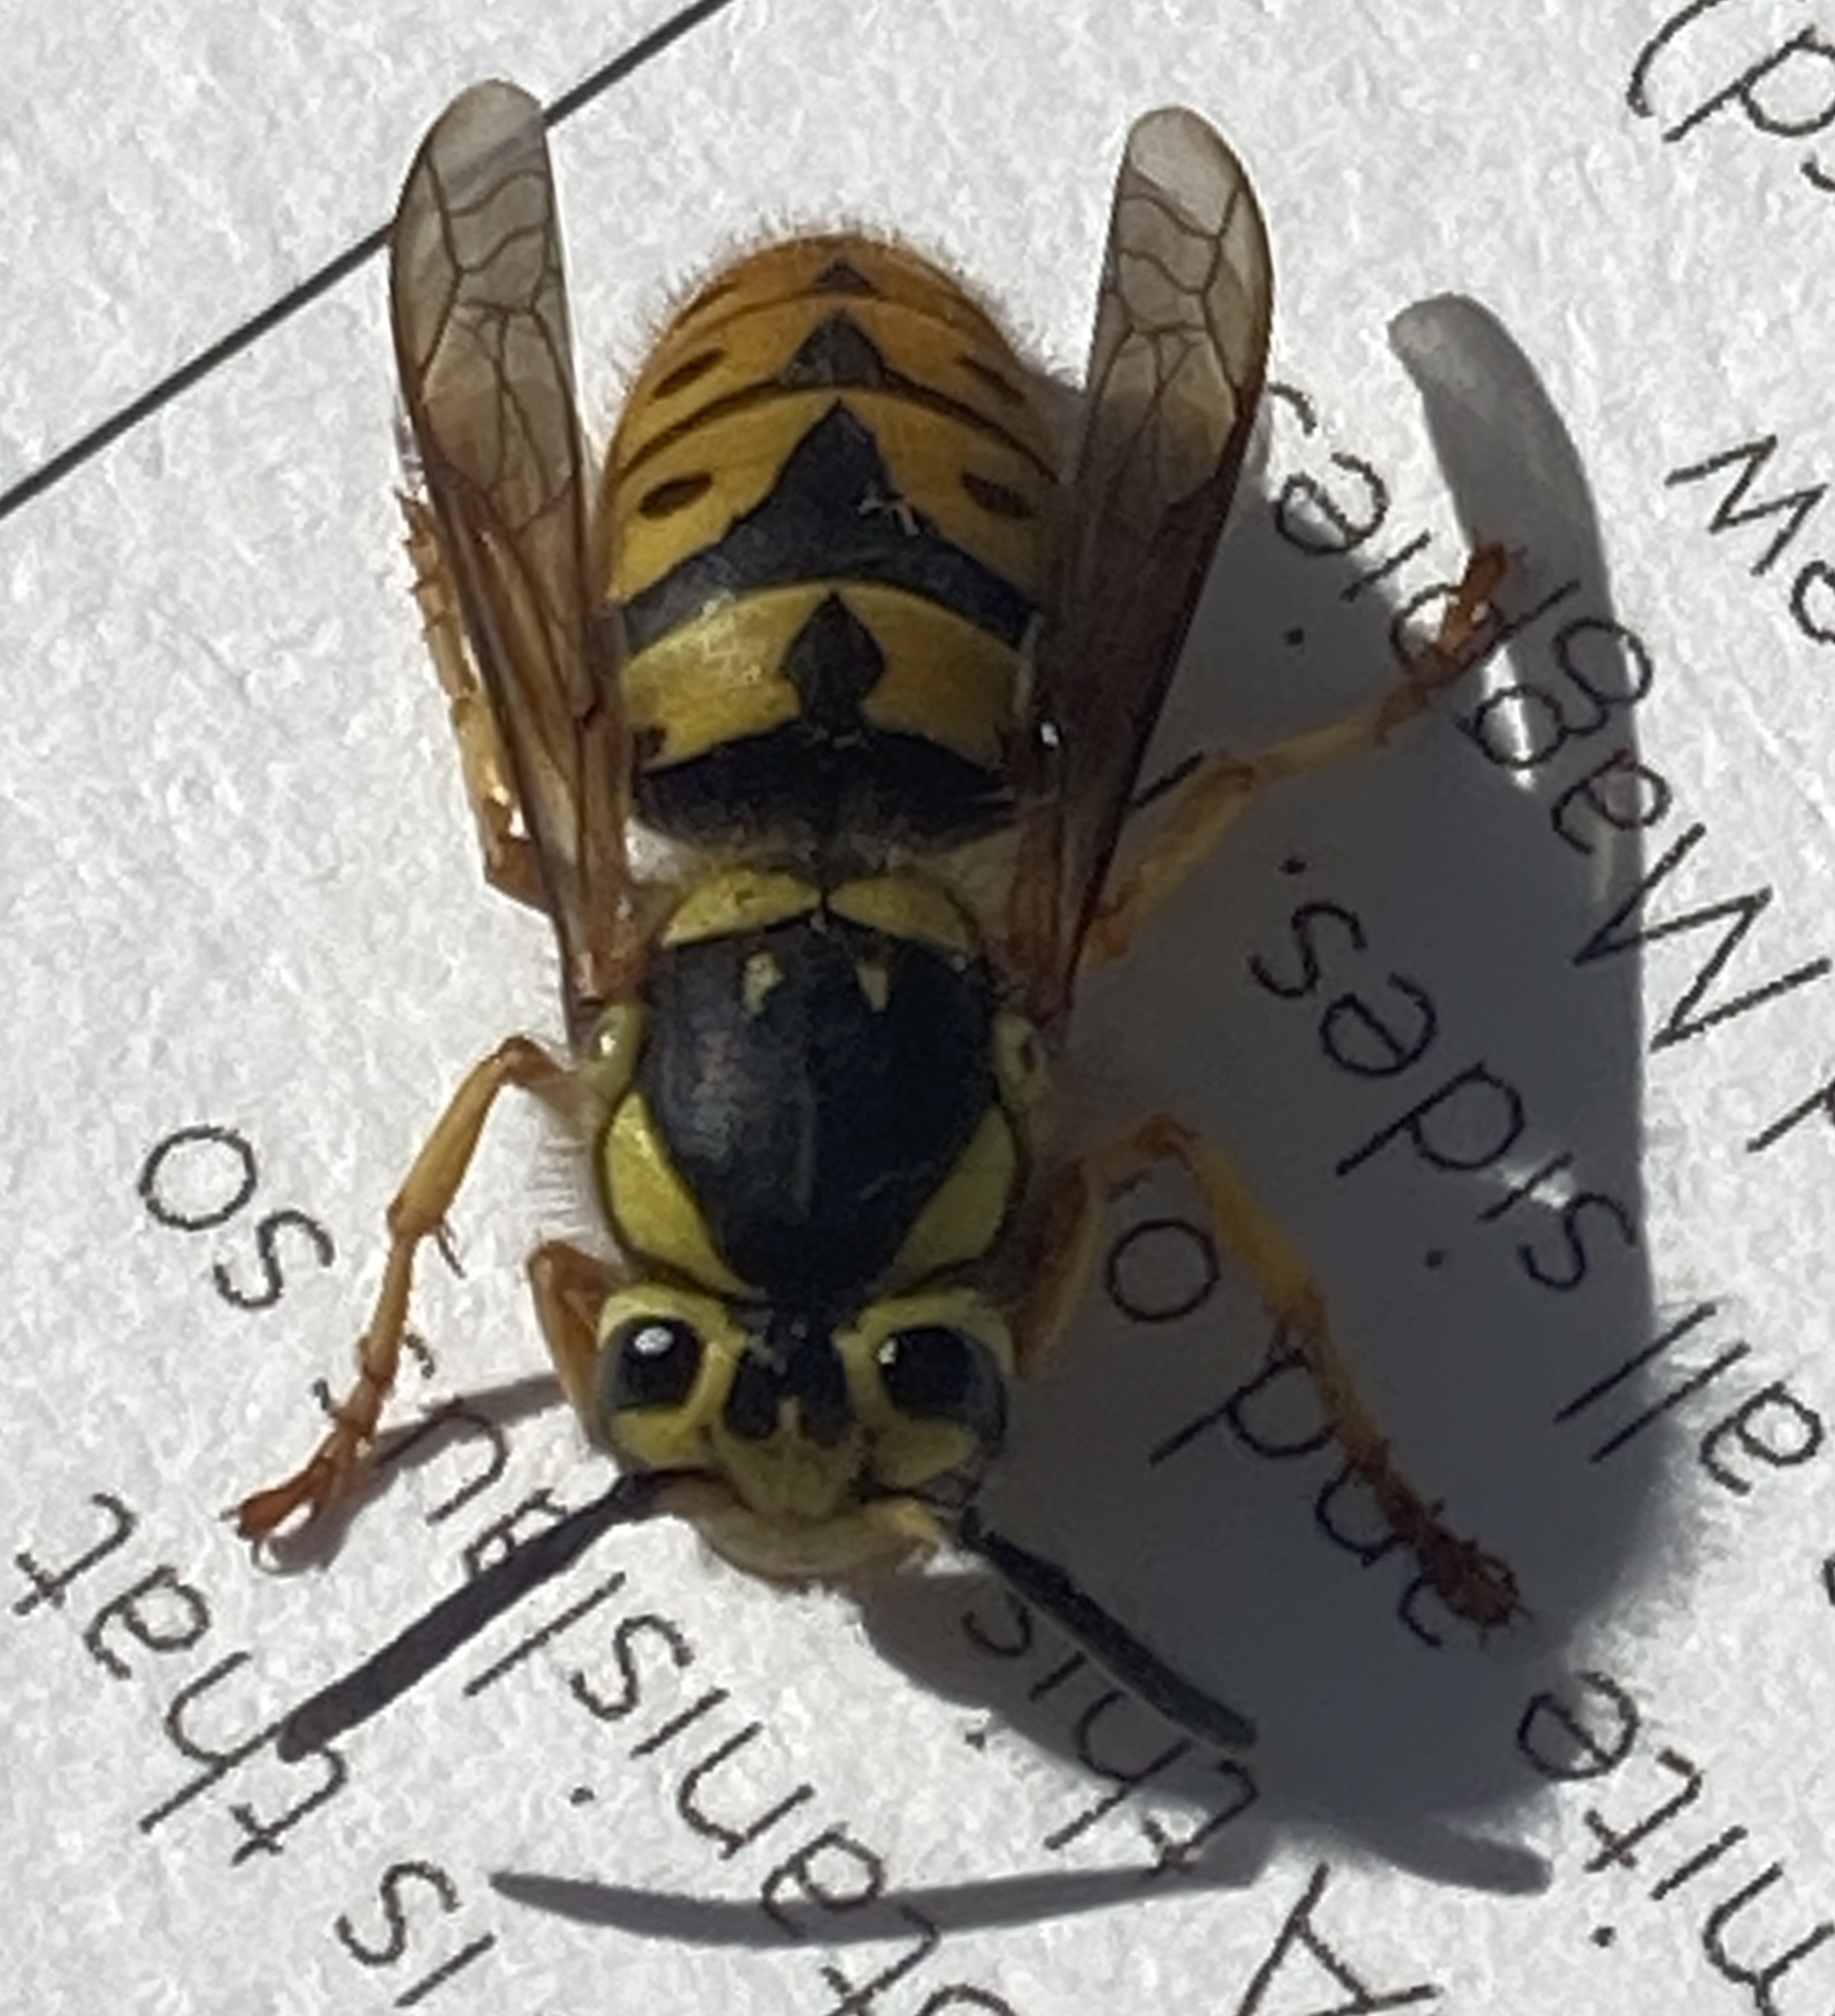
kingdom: Animalia
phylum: Arthropoda
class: Insecta
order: Hymenoptera
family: Vespidae
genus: Vespula
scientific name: Vespula pensylvanica
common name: Western yellowjacket
